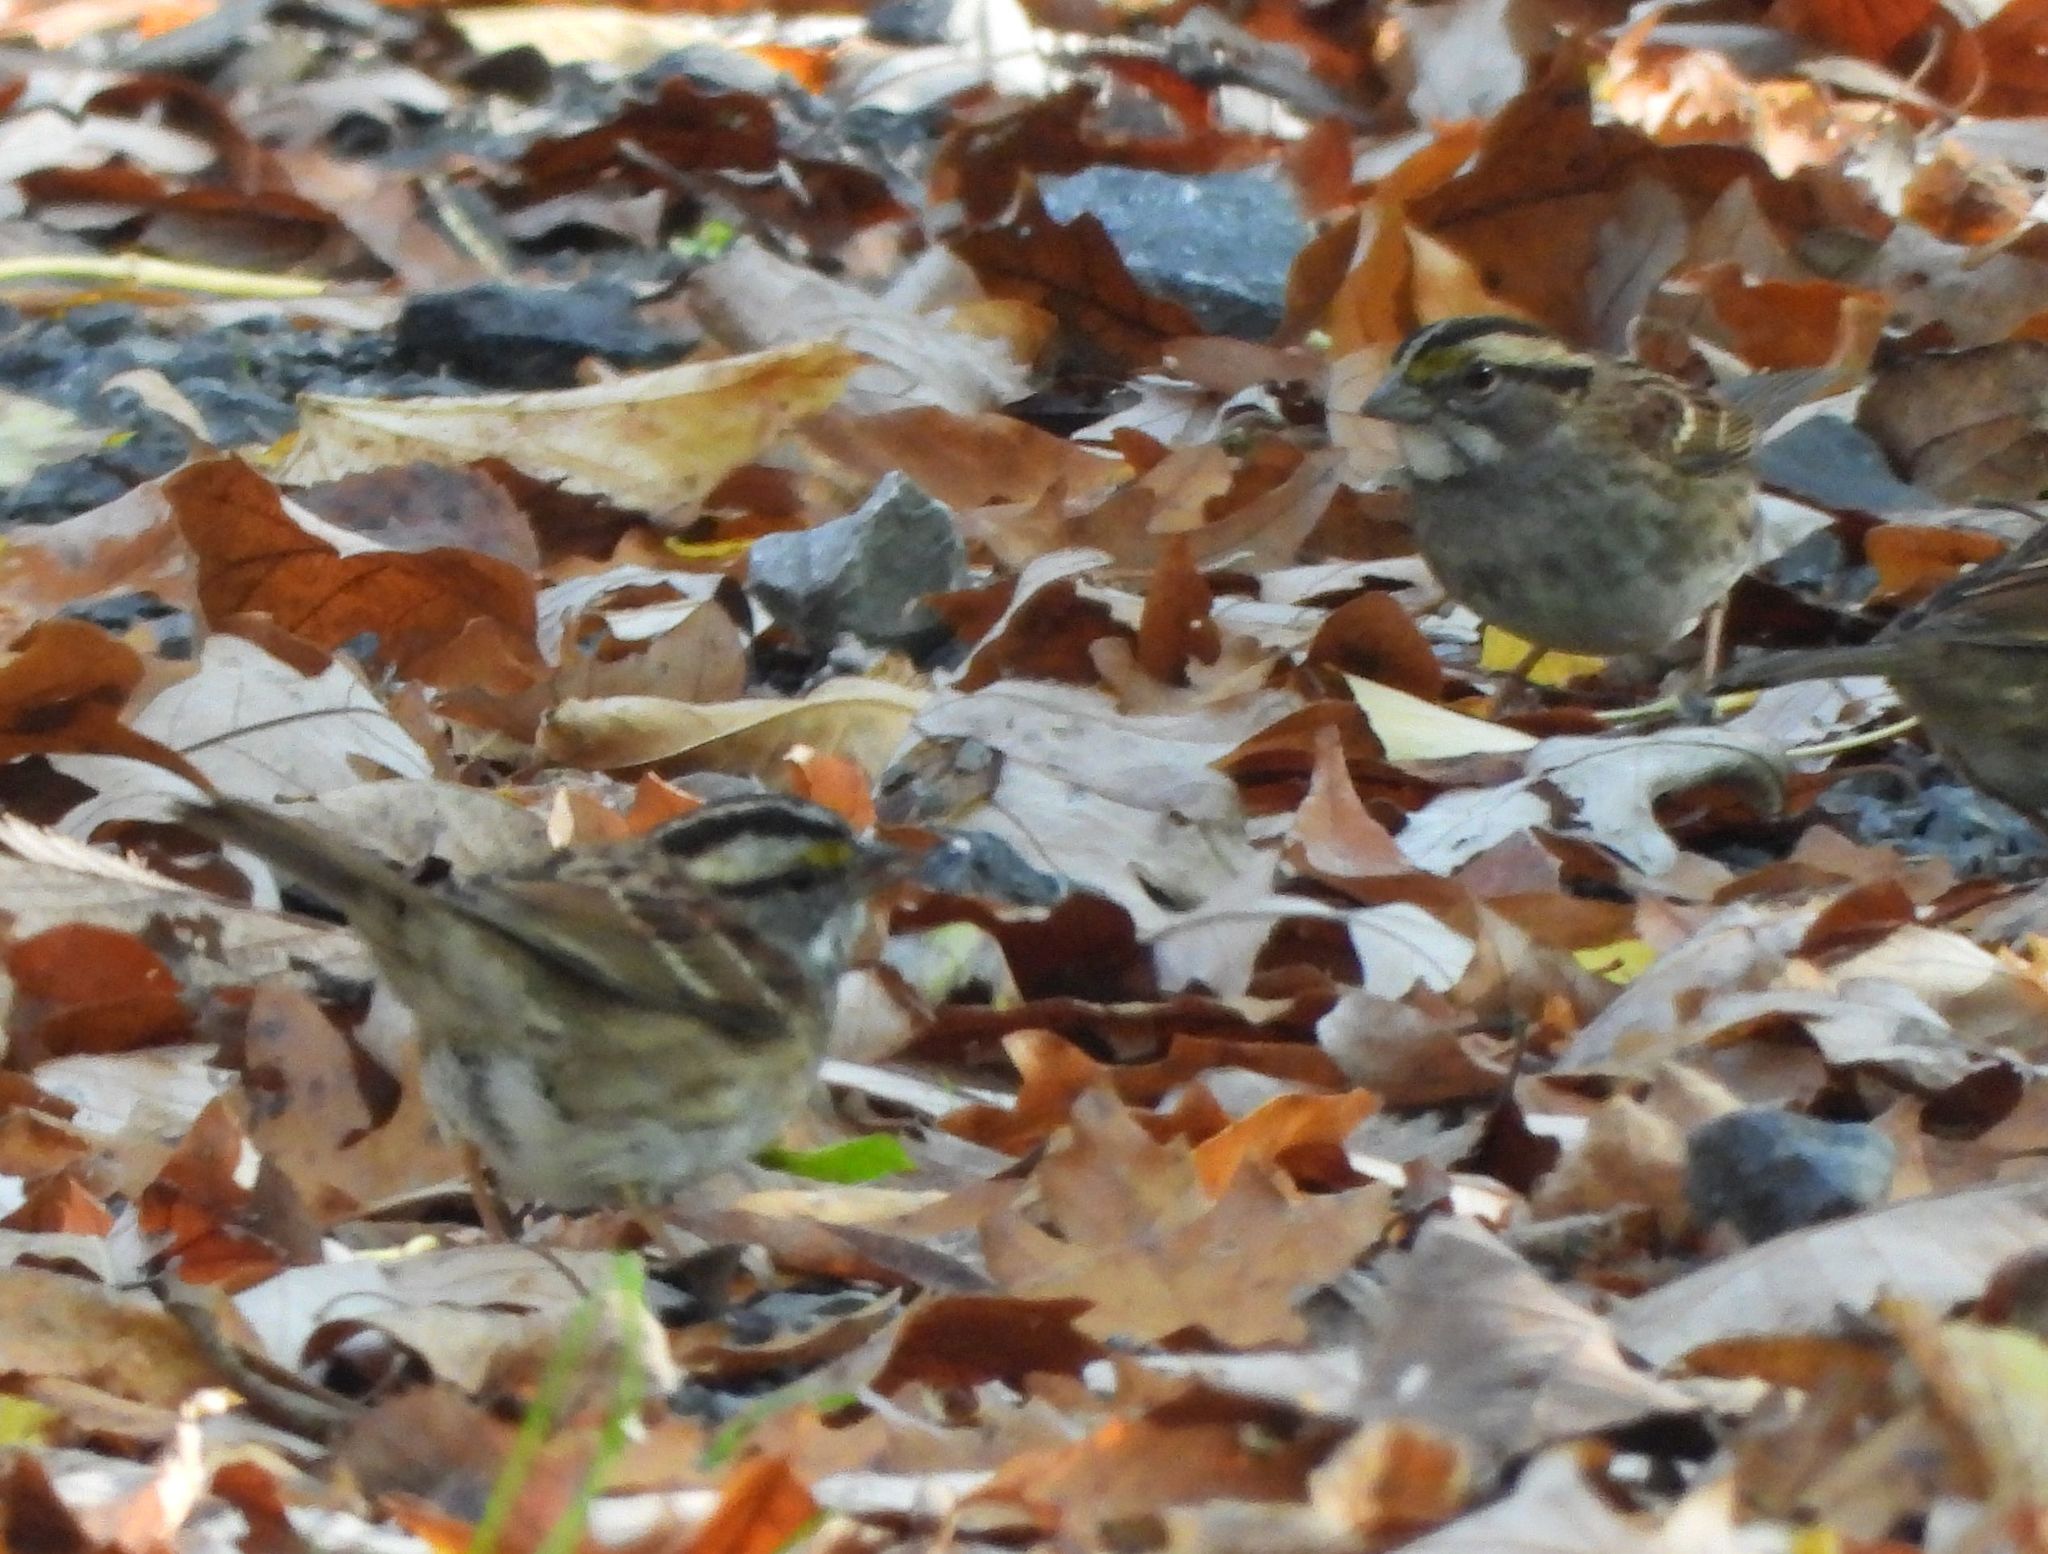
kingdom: Animalia
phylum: Chordata
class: Aves
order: Passeriformes
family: Passerellidae
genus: Zonotrichia
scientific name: Zonotrichia albicollis
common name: White-throated sparrow
